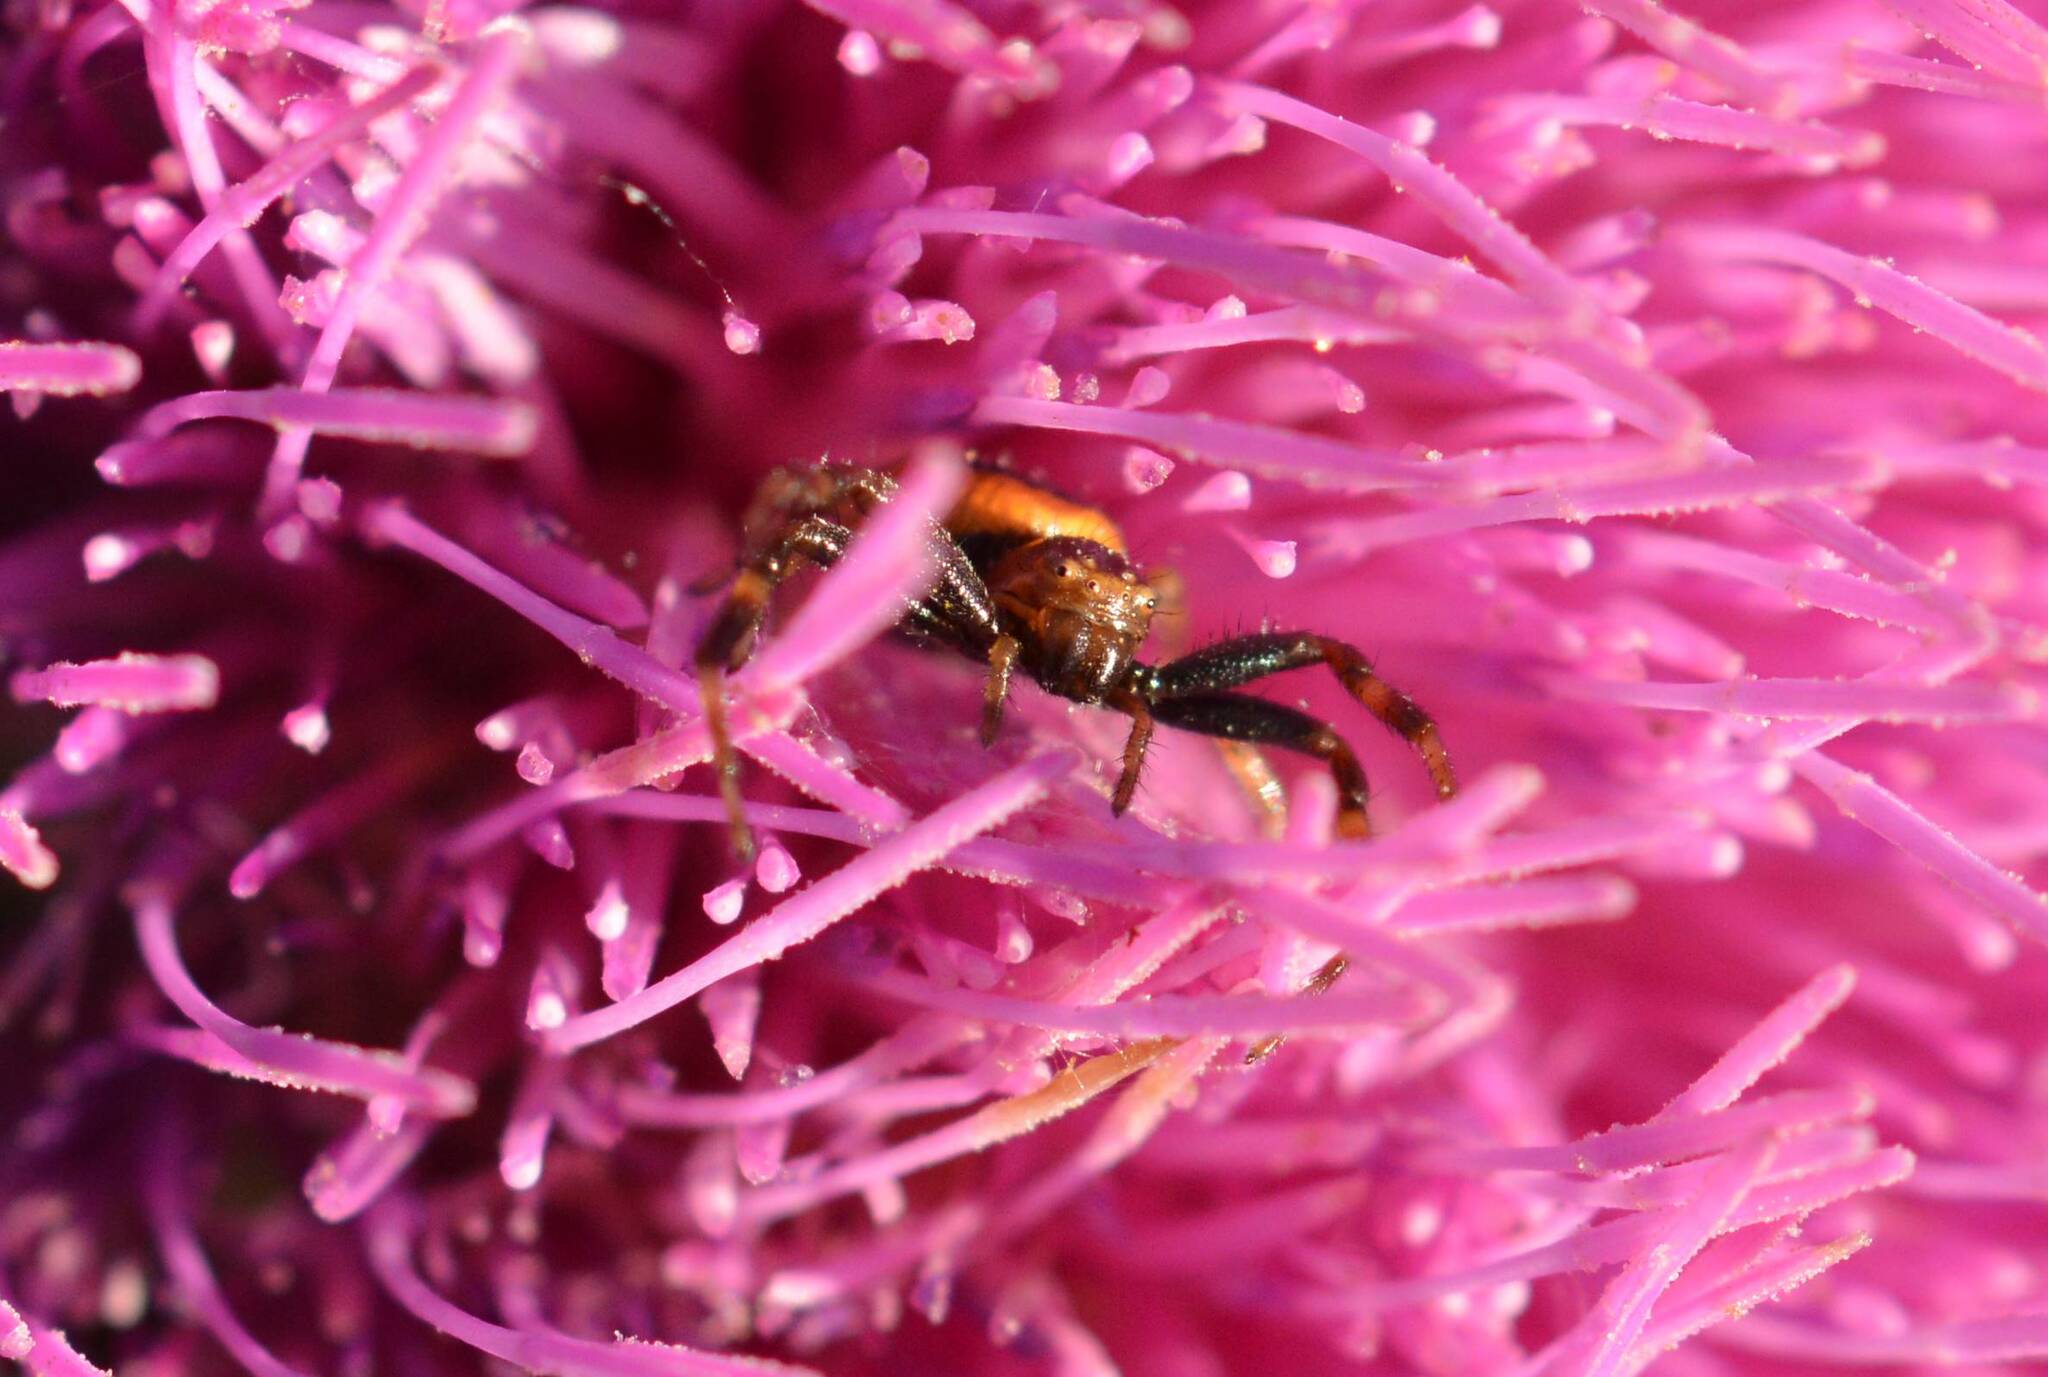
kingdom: Animalia
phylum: Arthropoda
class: Arachnida
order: Araneae
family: Thomisidae
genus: Synema
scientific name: Synema globosum
